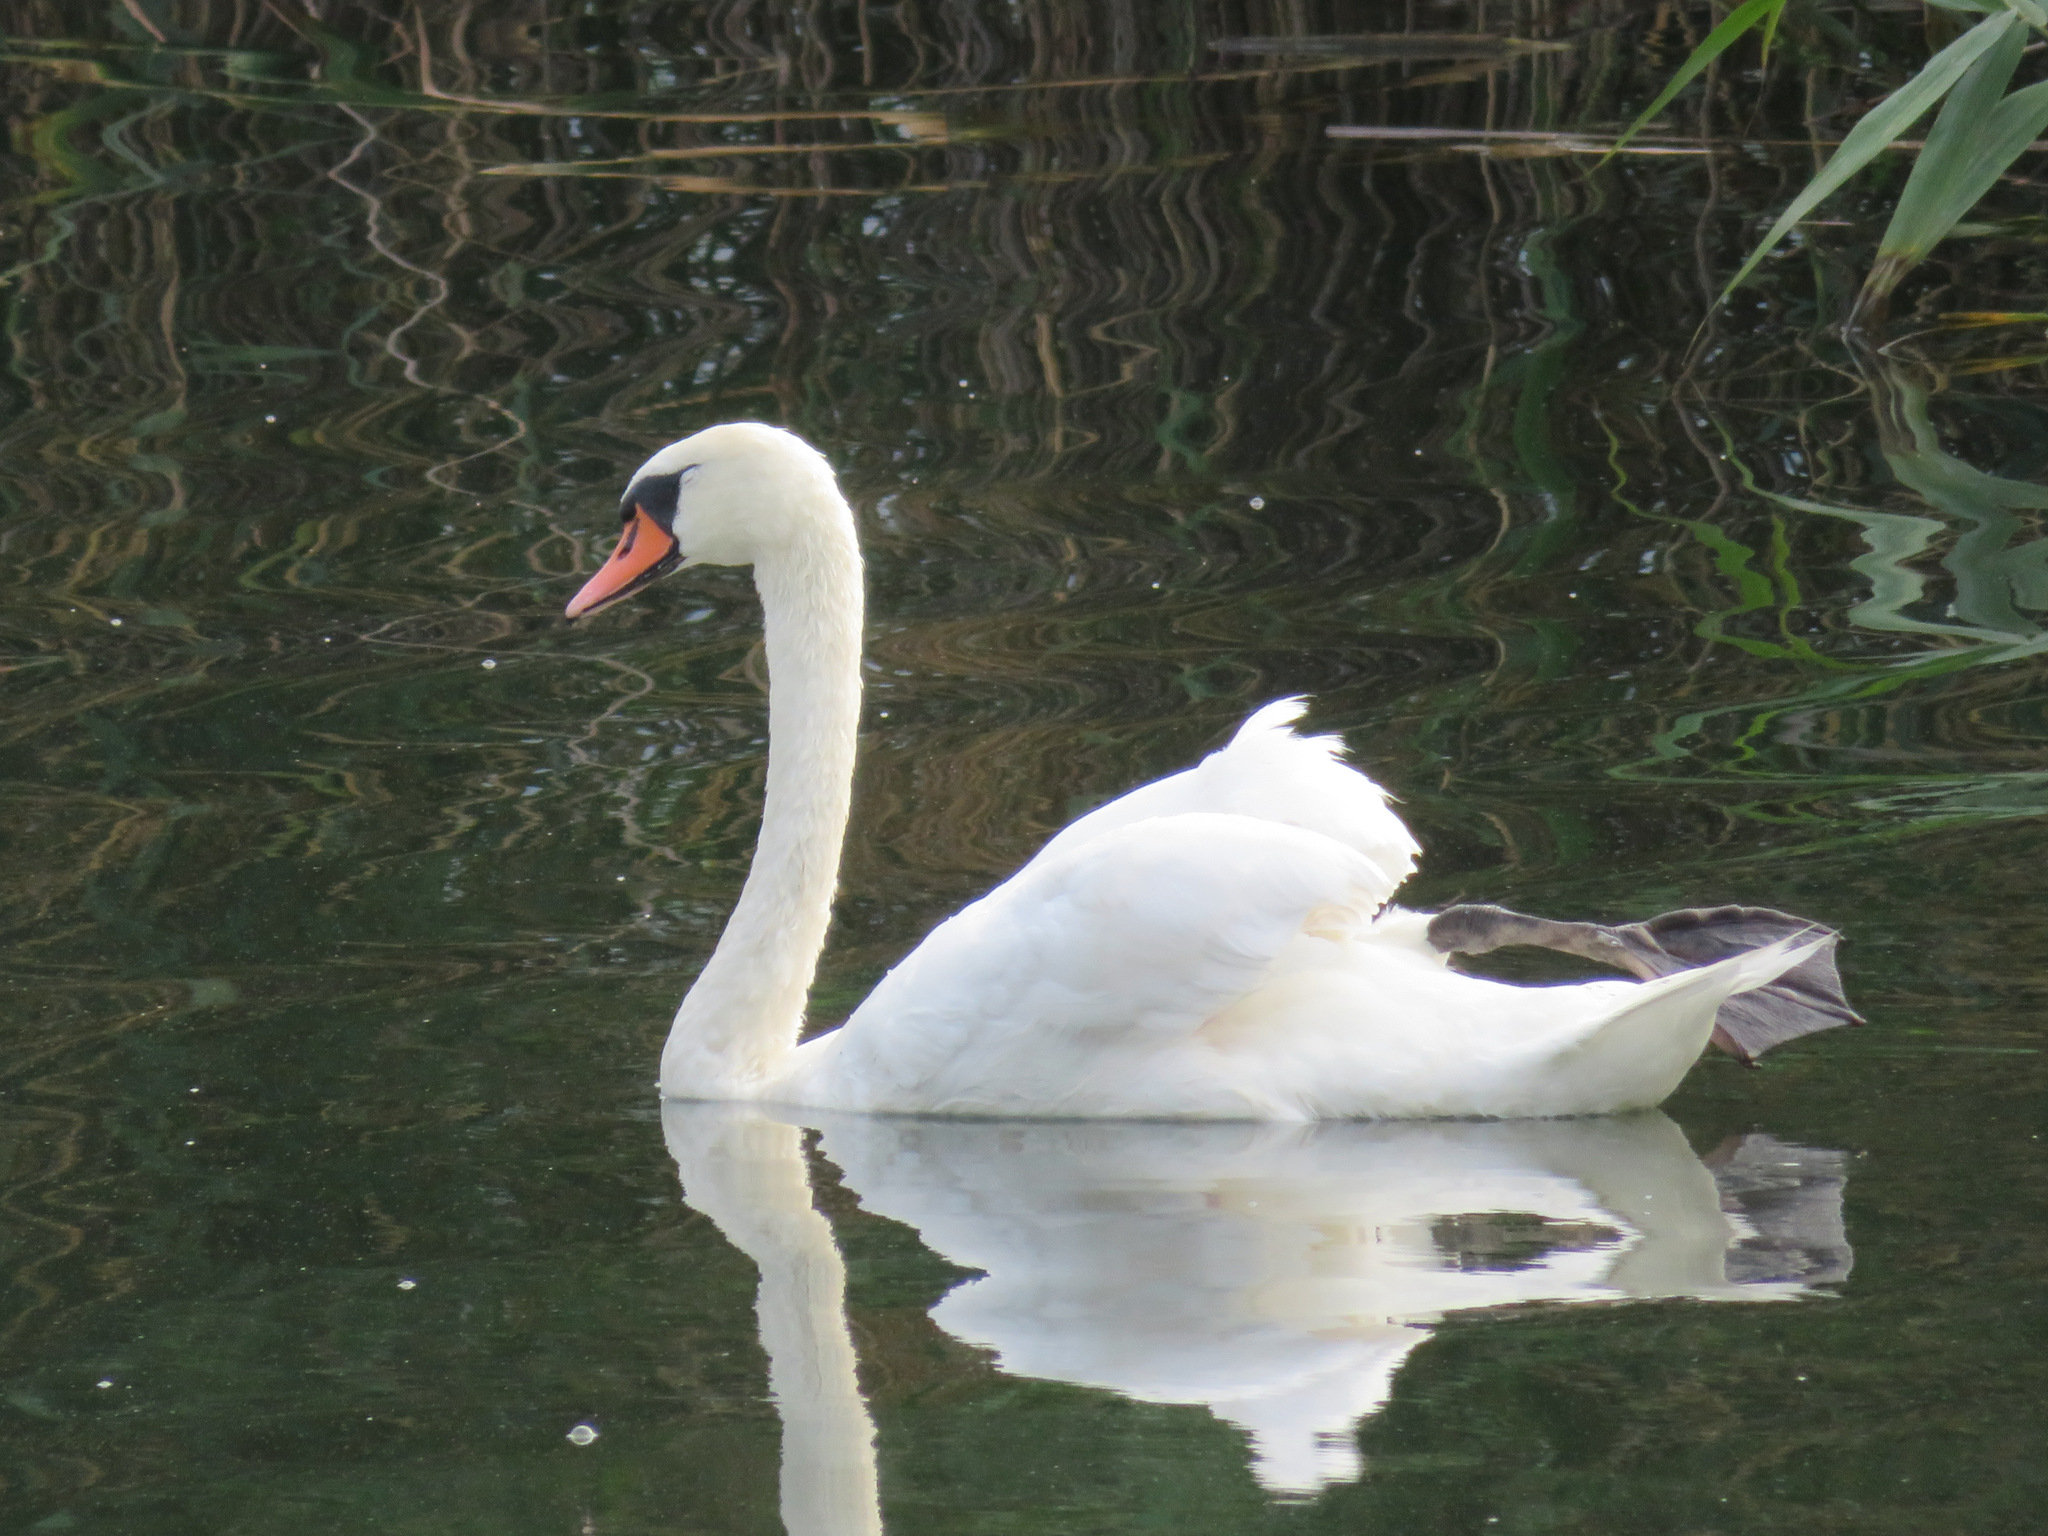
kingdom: Animalia
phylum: Chordata
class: Aves
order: Anseriformes
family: Anatidae
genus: Cygnus
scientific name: Cygnus olor
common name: Mute swan
